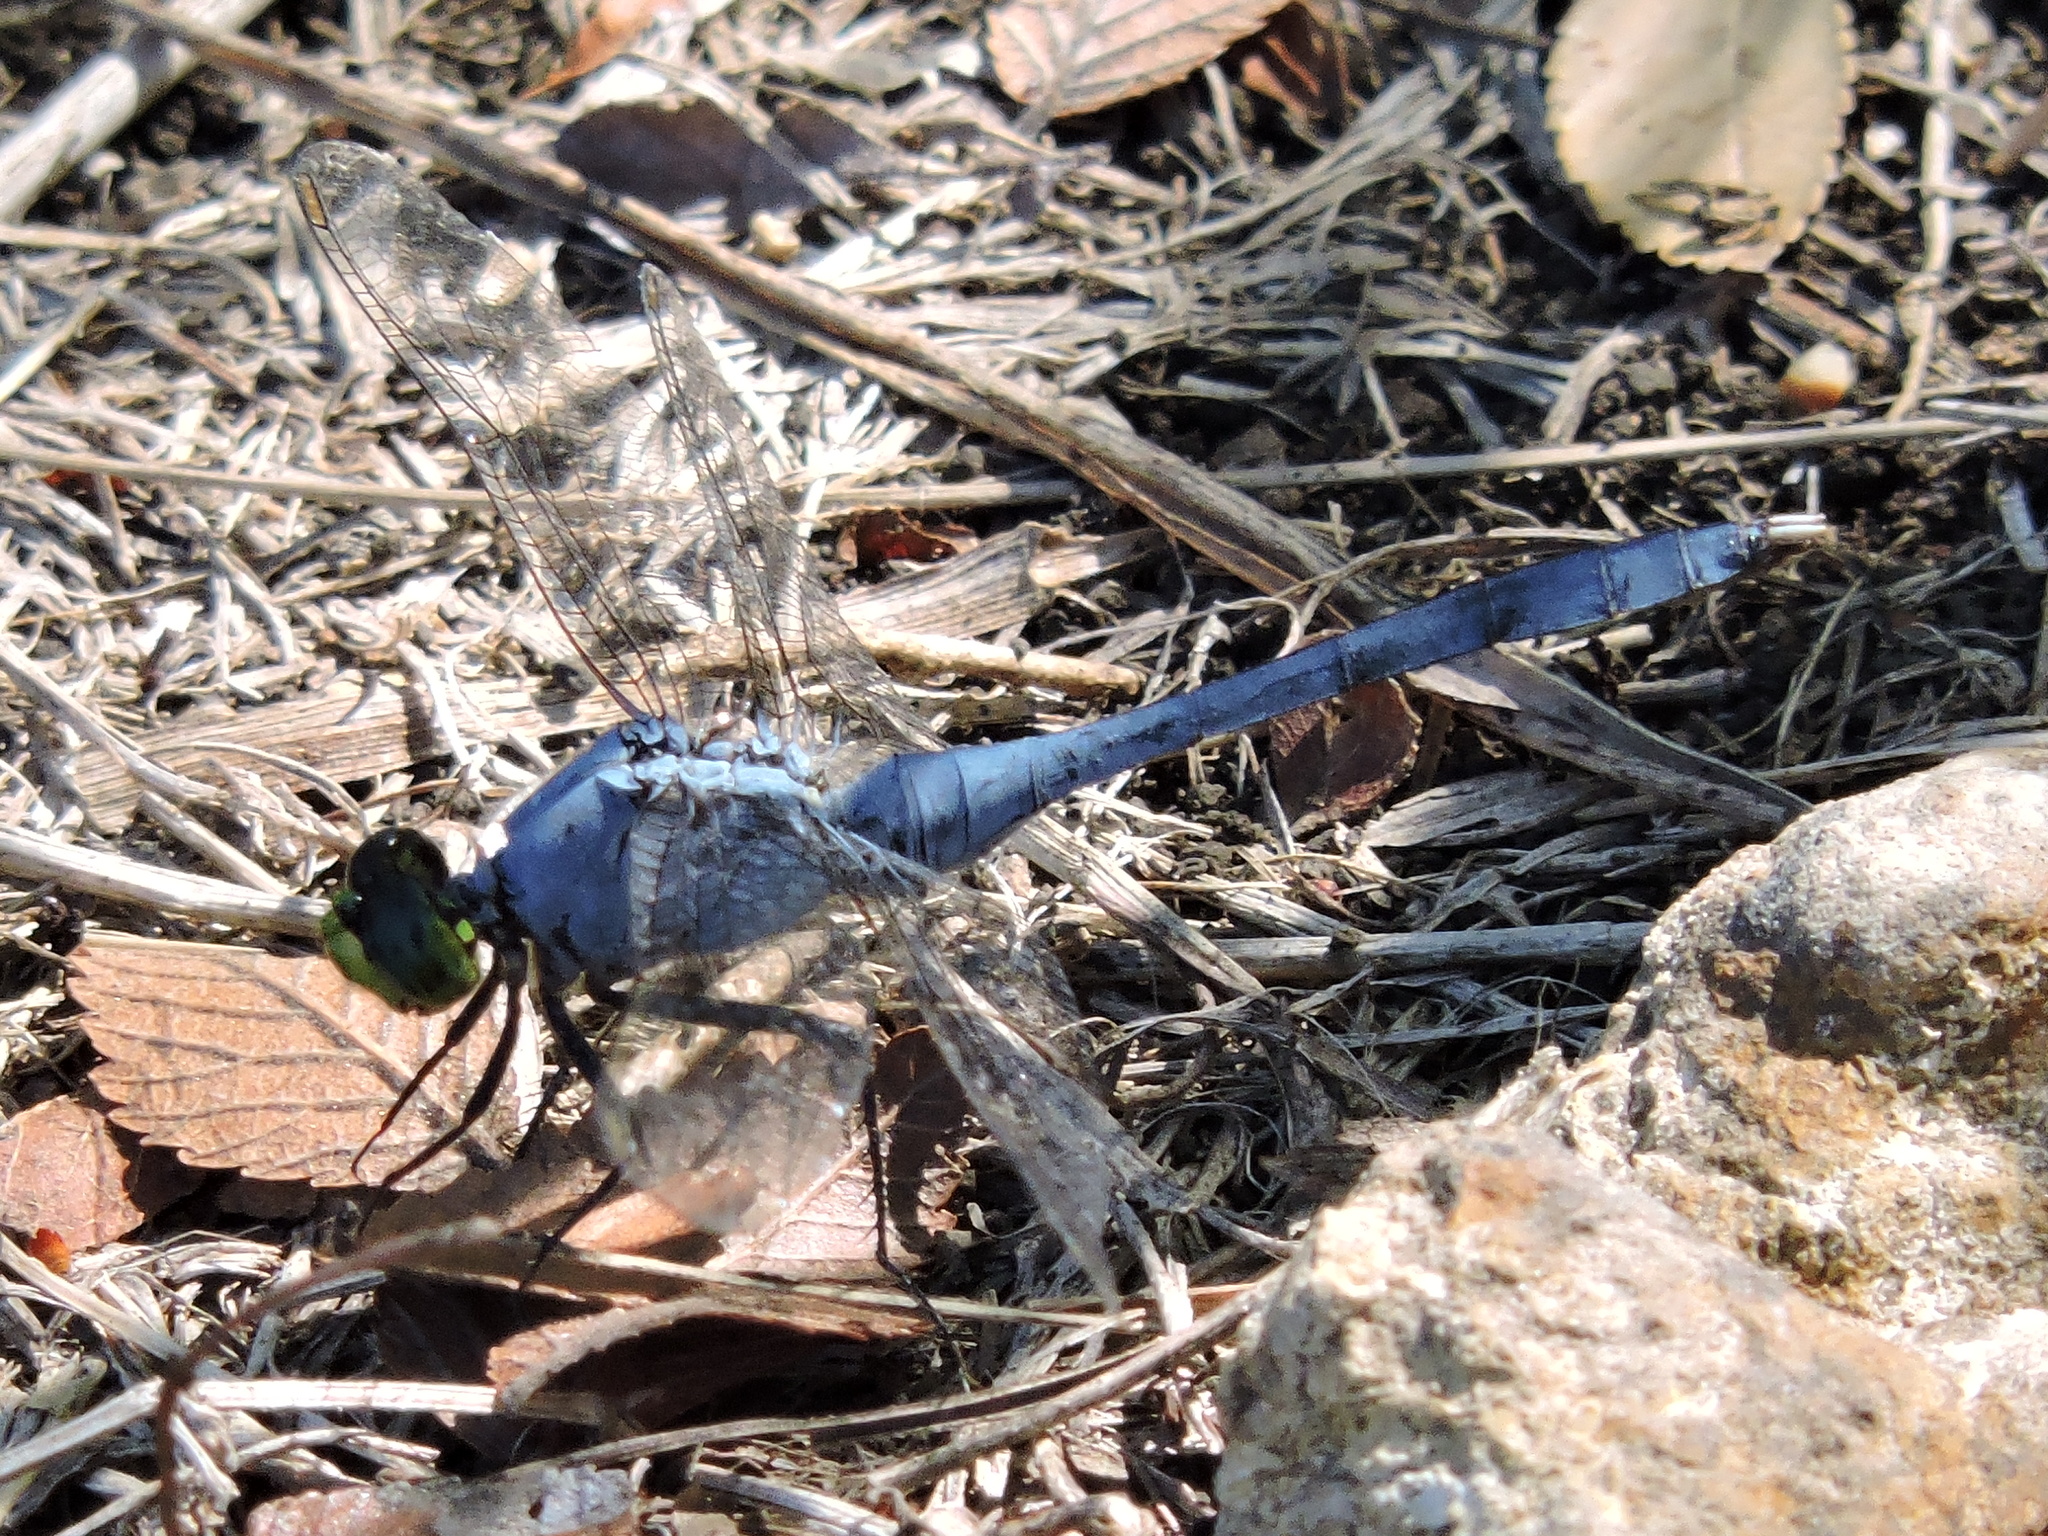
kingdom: Animalia
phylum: Arthropoda
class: Insecta
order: Odonata
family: Libellulidae
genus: Erythemis
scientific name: Erythemis simplicicollis
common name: Eastern pondhawk
